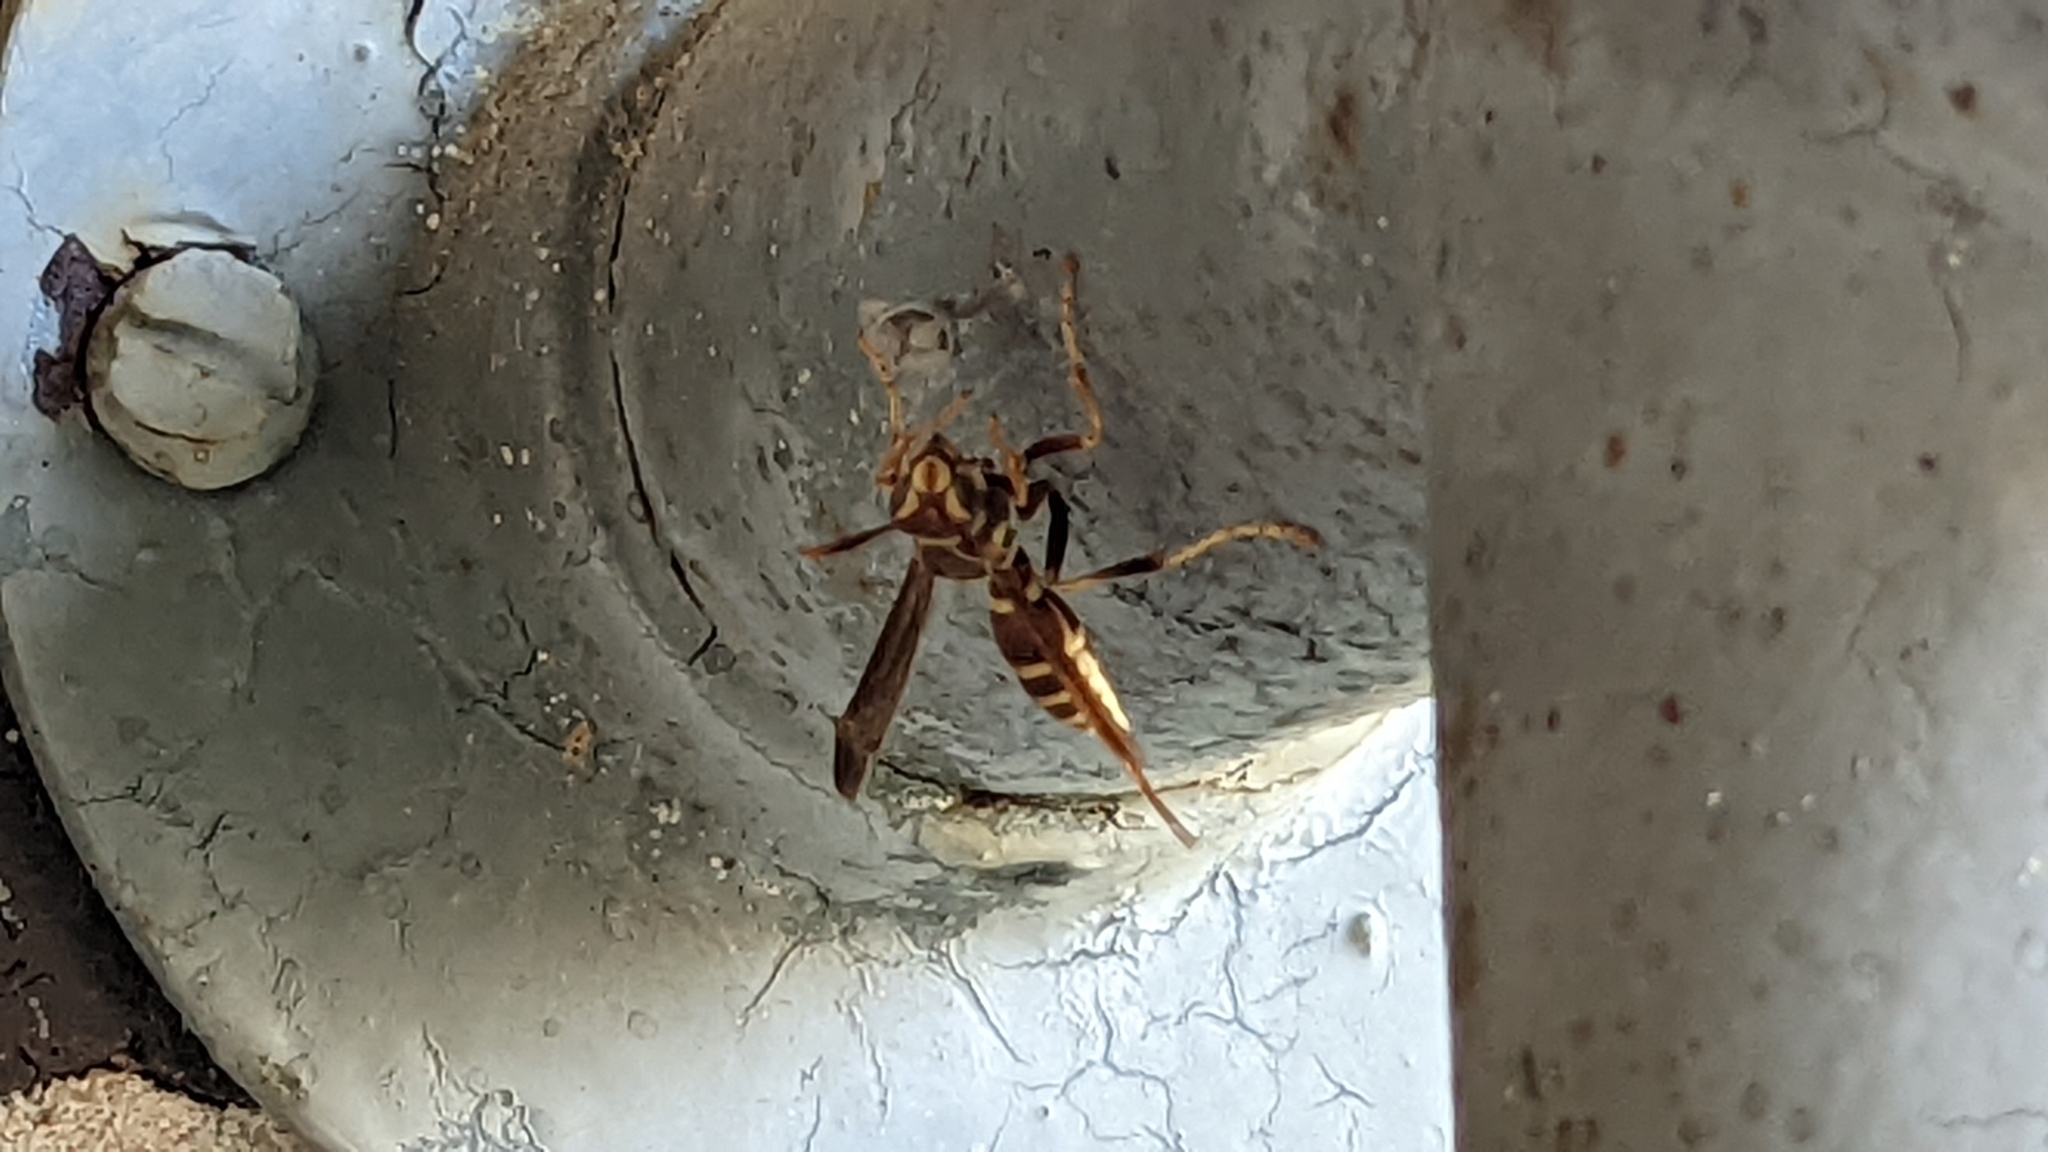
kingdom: Animalia
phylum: Arthropoda
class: Insecta
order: Hymenoptera
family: Eumenidae
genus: Polistes
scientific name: Polistes exclamans
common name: Paper wasp
